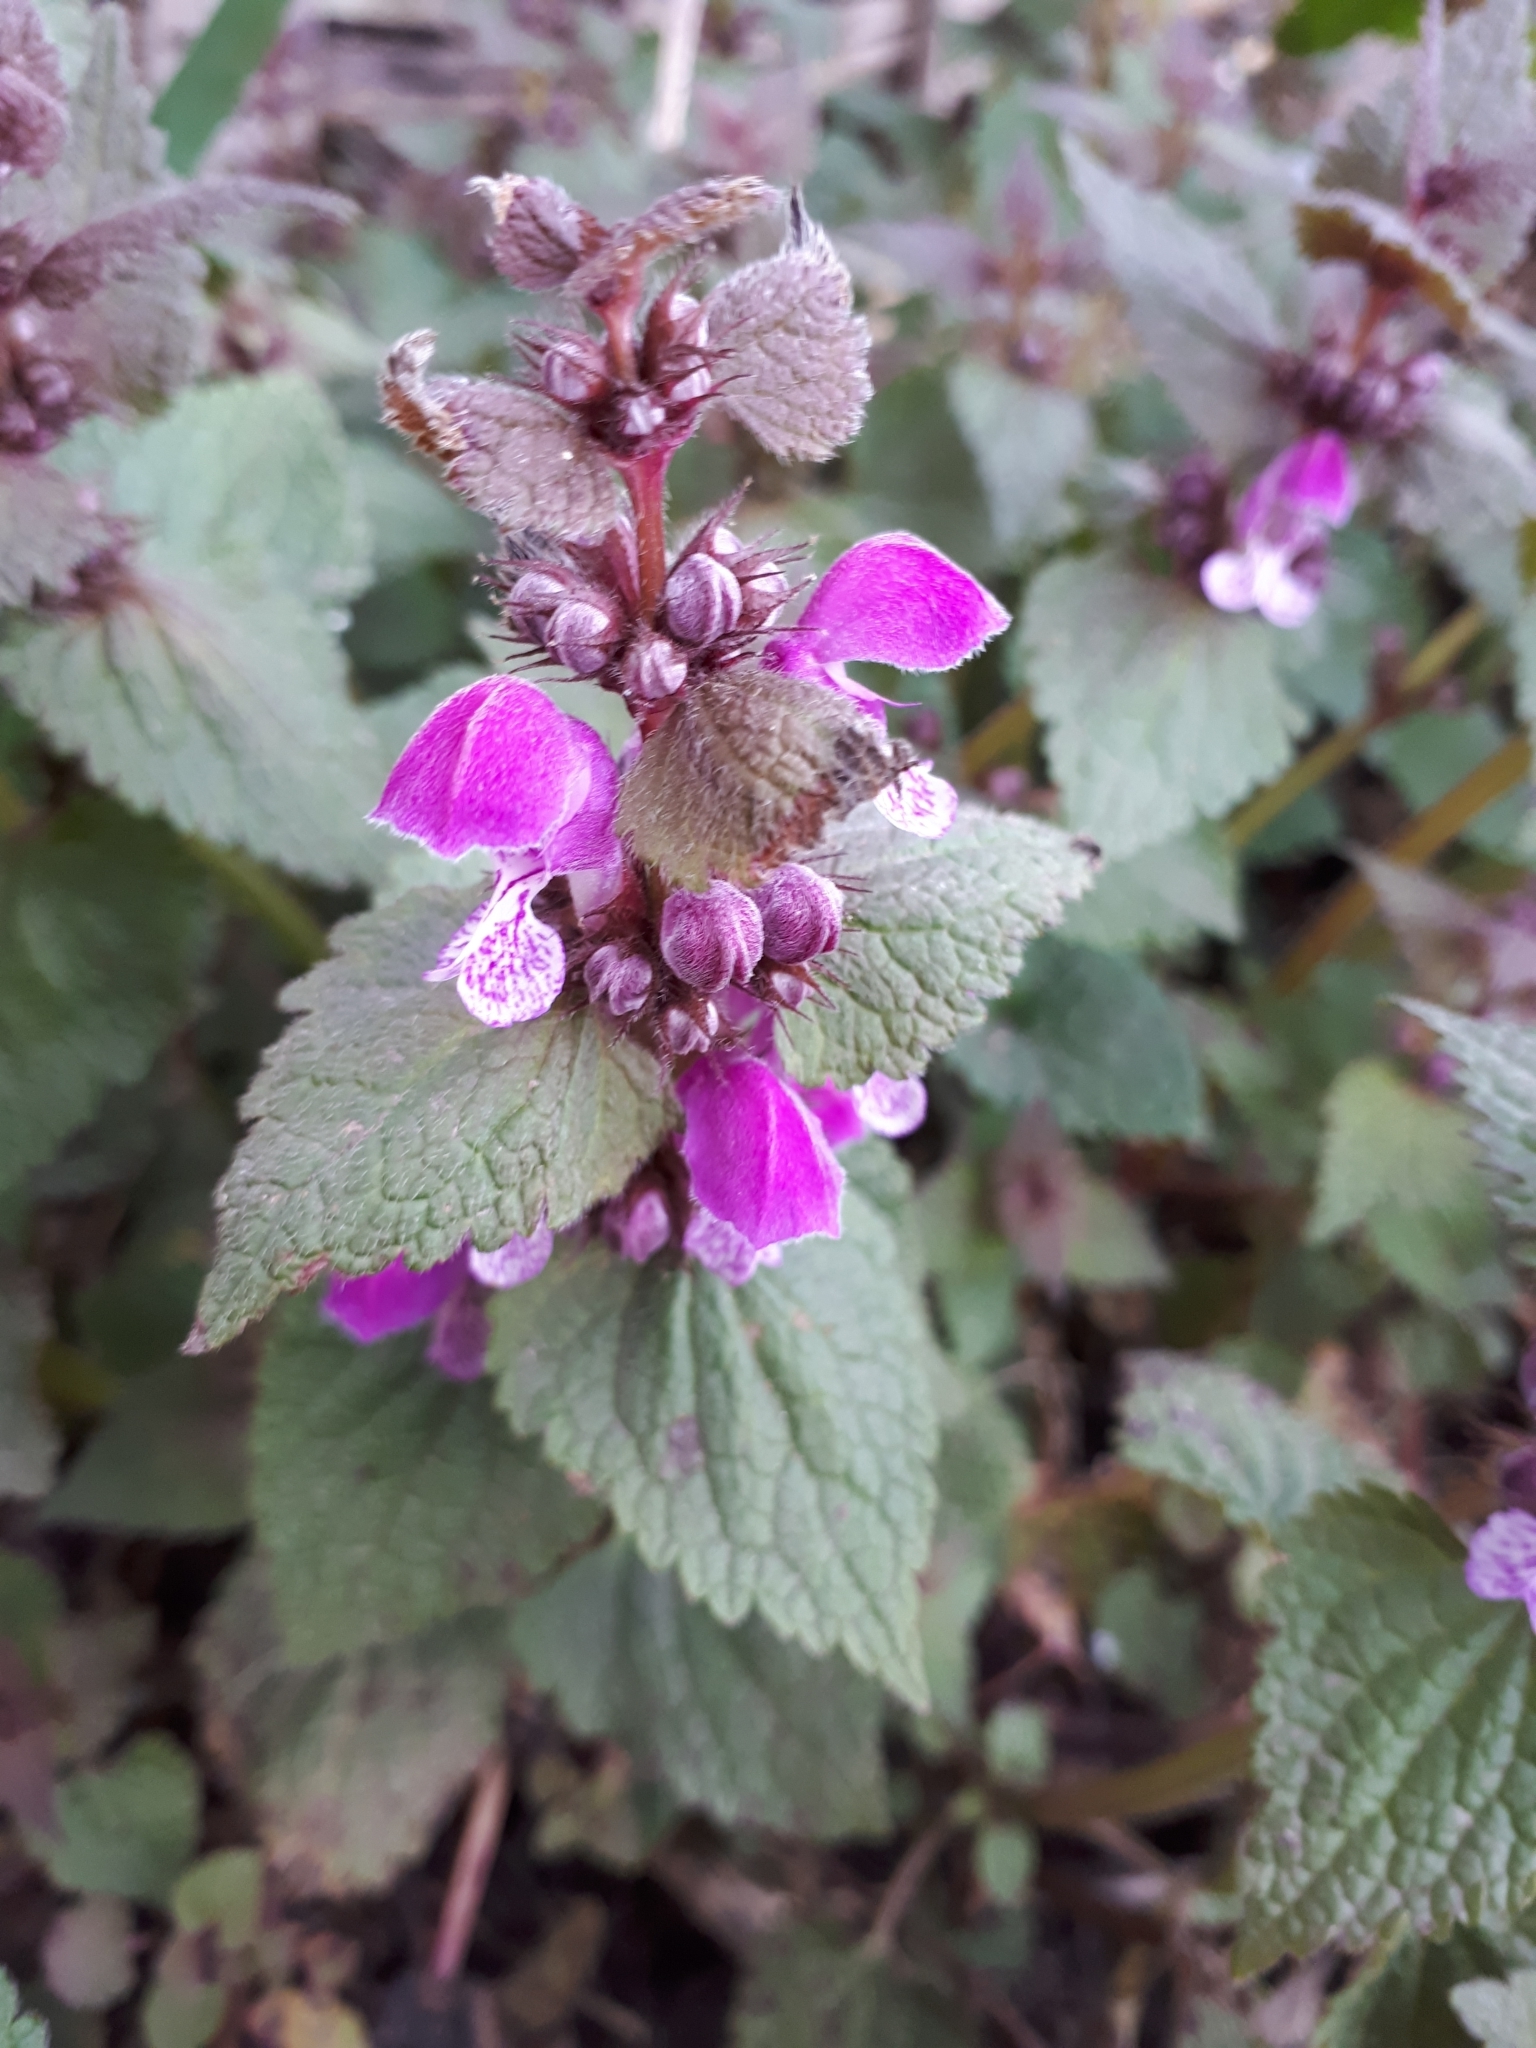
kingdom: Plantae
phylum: Tracheophyta
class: Magnoliopsida
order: Lamiales
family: Lamiaceae
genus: Lamium
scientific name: Lamium maculatum
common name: Spotted dead-nettle
